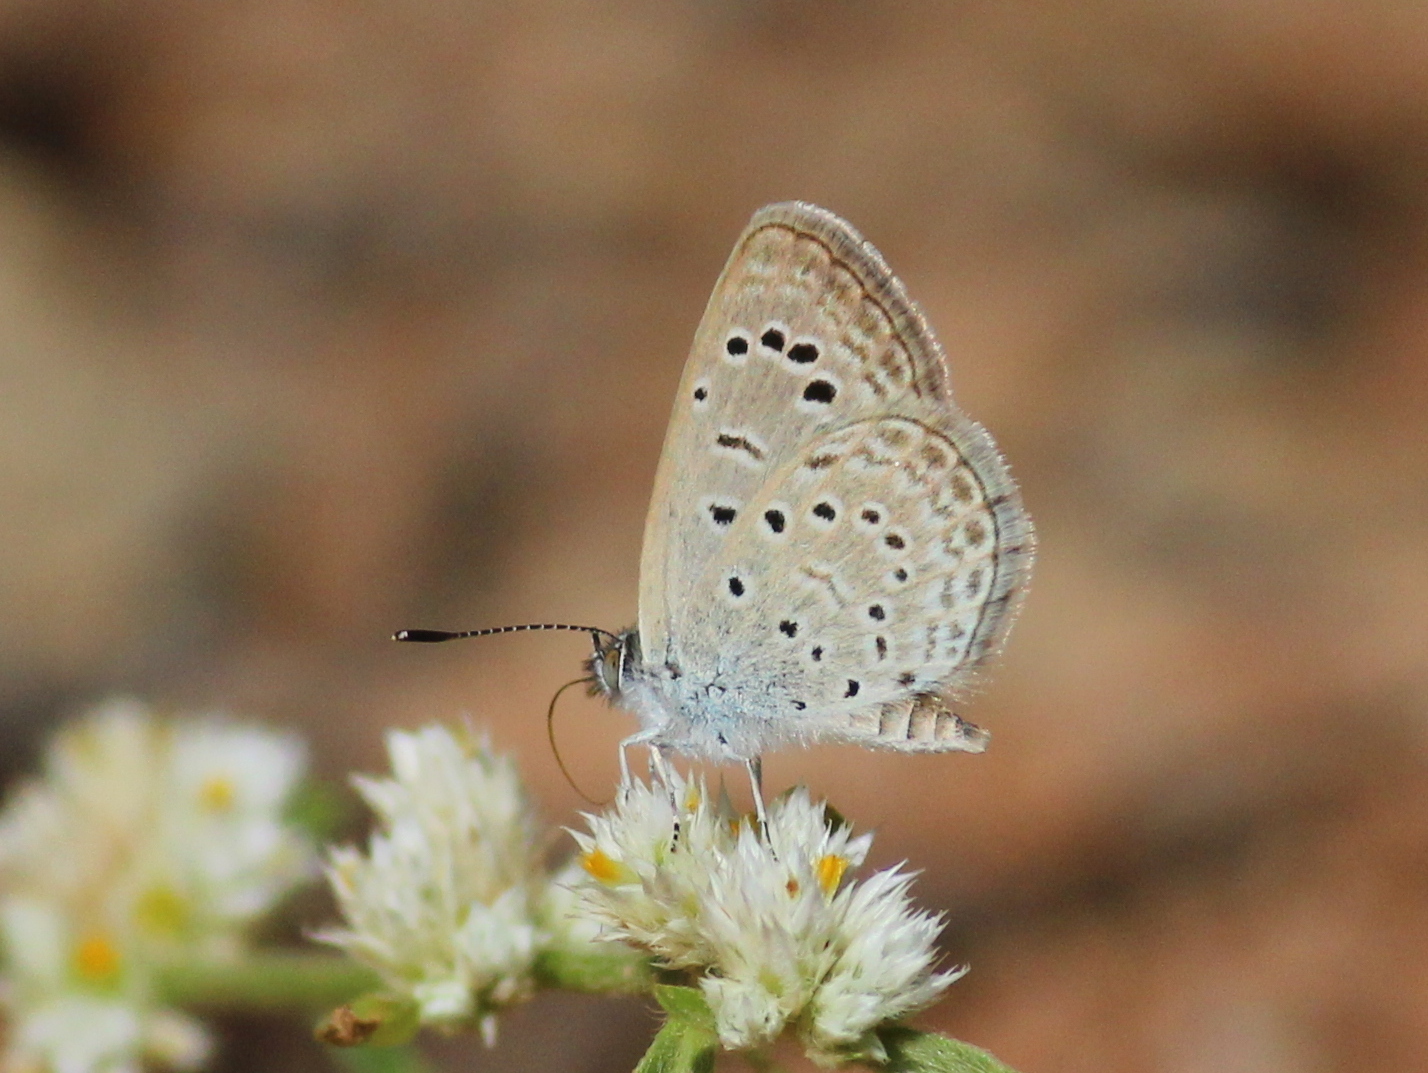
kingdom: Animalia
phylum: Arthropoda
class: Insecta
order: Lepidoptera
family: Lycaenidae
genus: Zizeeria
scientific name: Zizeeria karsandra
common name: Dark grass blue
